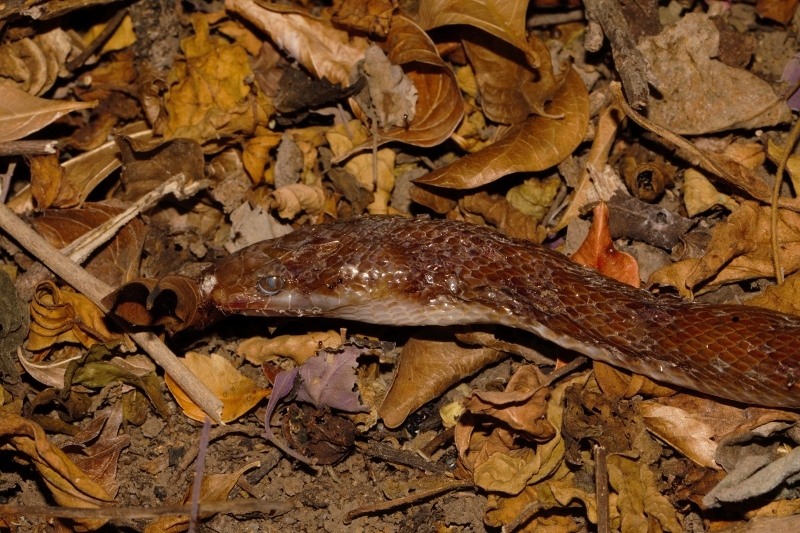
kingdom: Animalia
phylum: Chordata
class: Squamata
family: Lamprophiidae
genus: Boaedon
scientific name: Boaedon capensis
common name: Brown house snake
